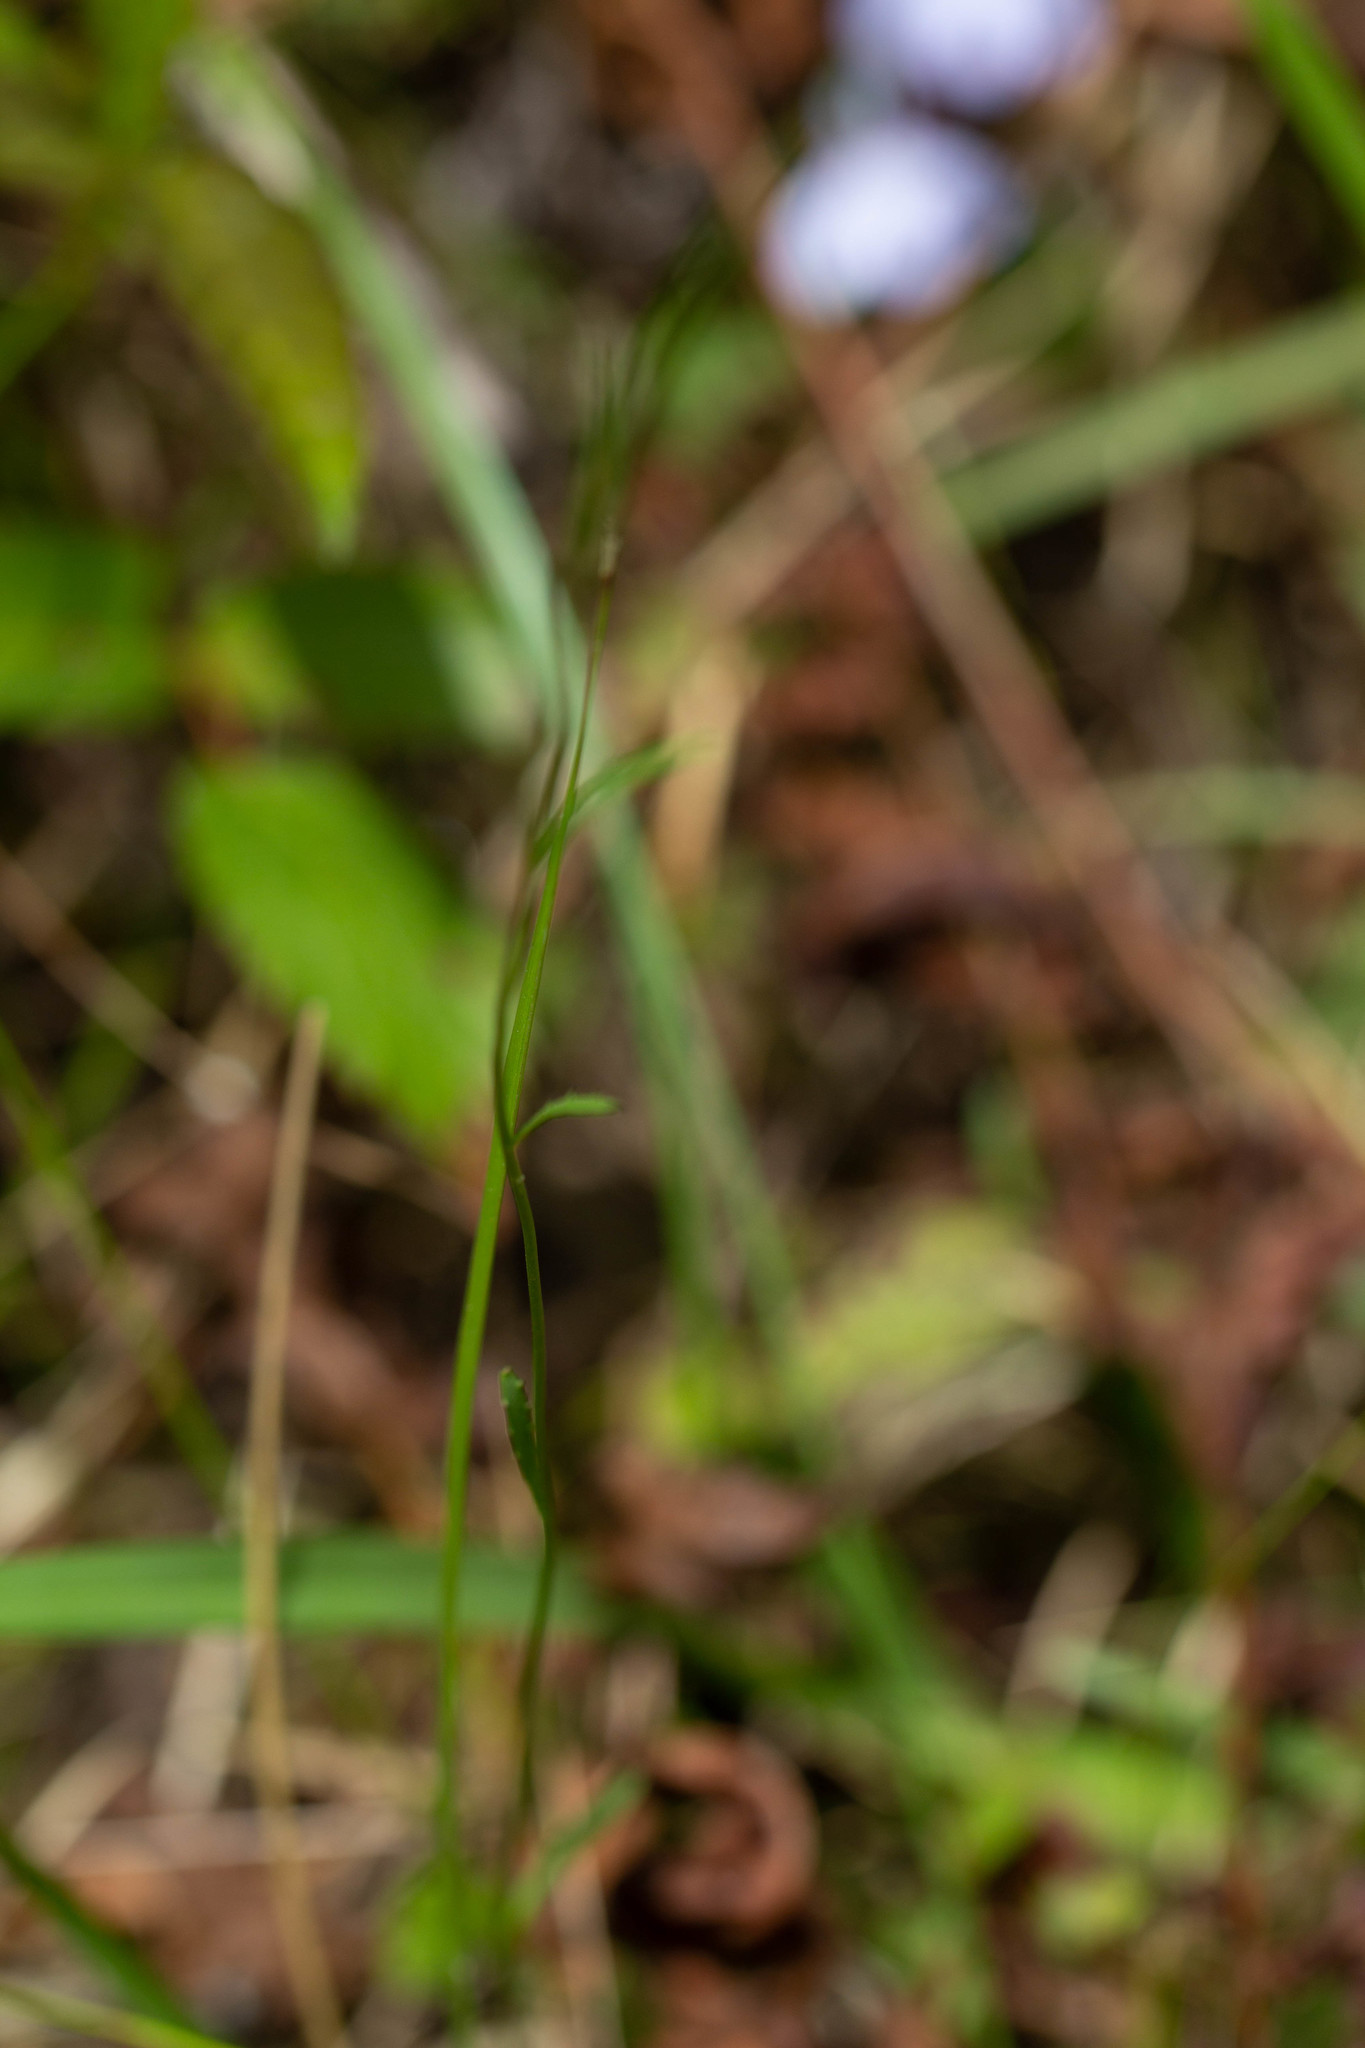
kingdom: Plantae
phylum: Tracheophyta
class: Magnoliopsida
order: Asterales
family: Campanulaceae
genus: Lobelia
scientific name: Lobelia nuttallii
